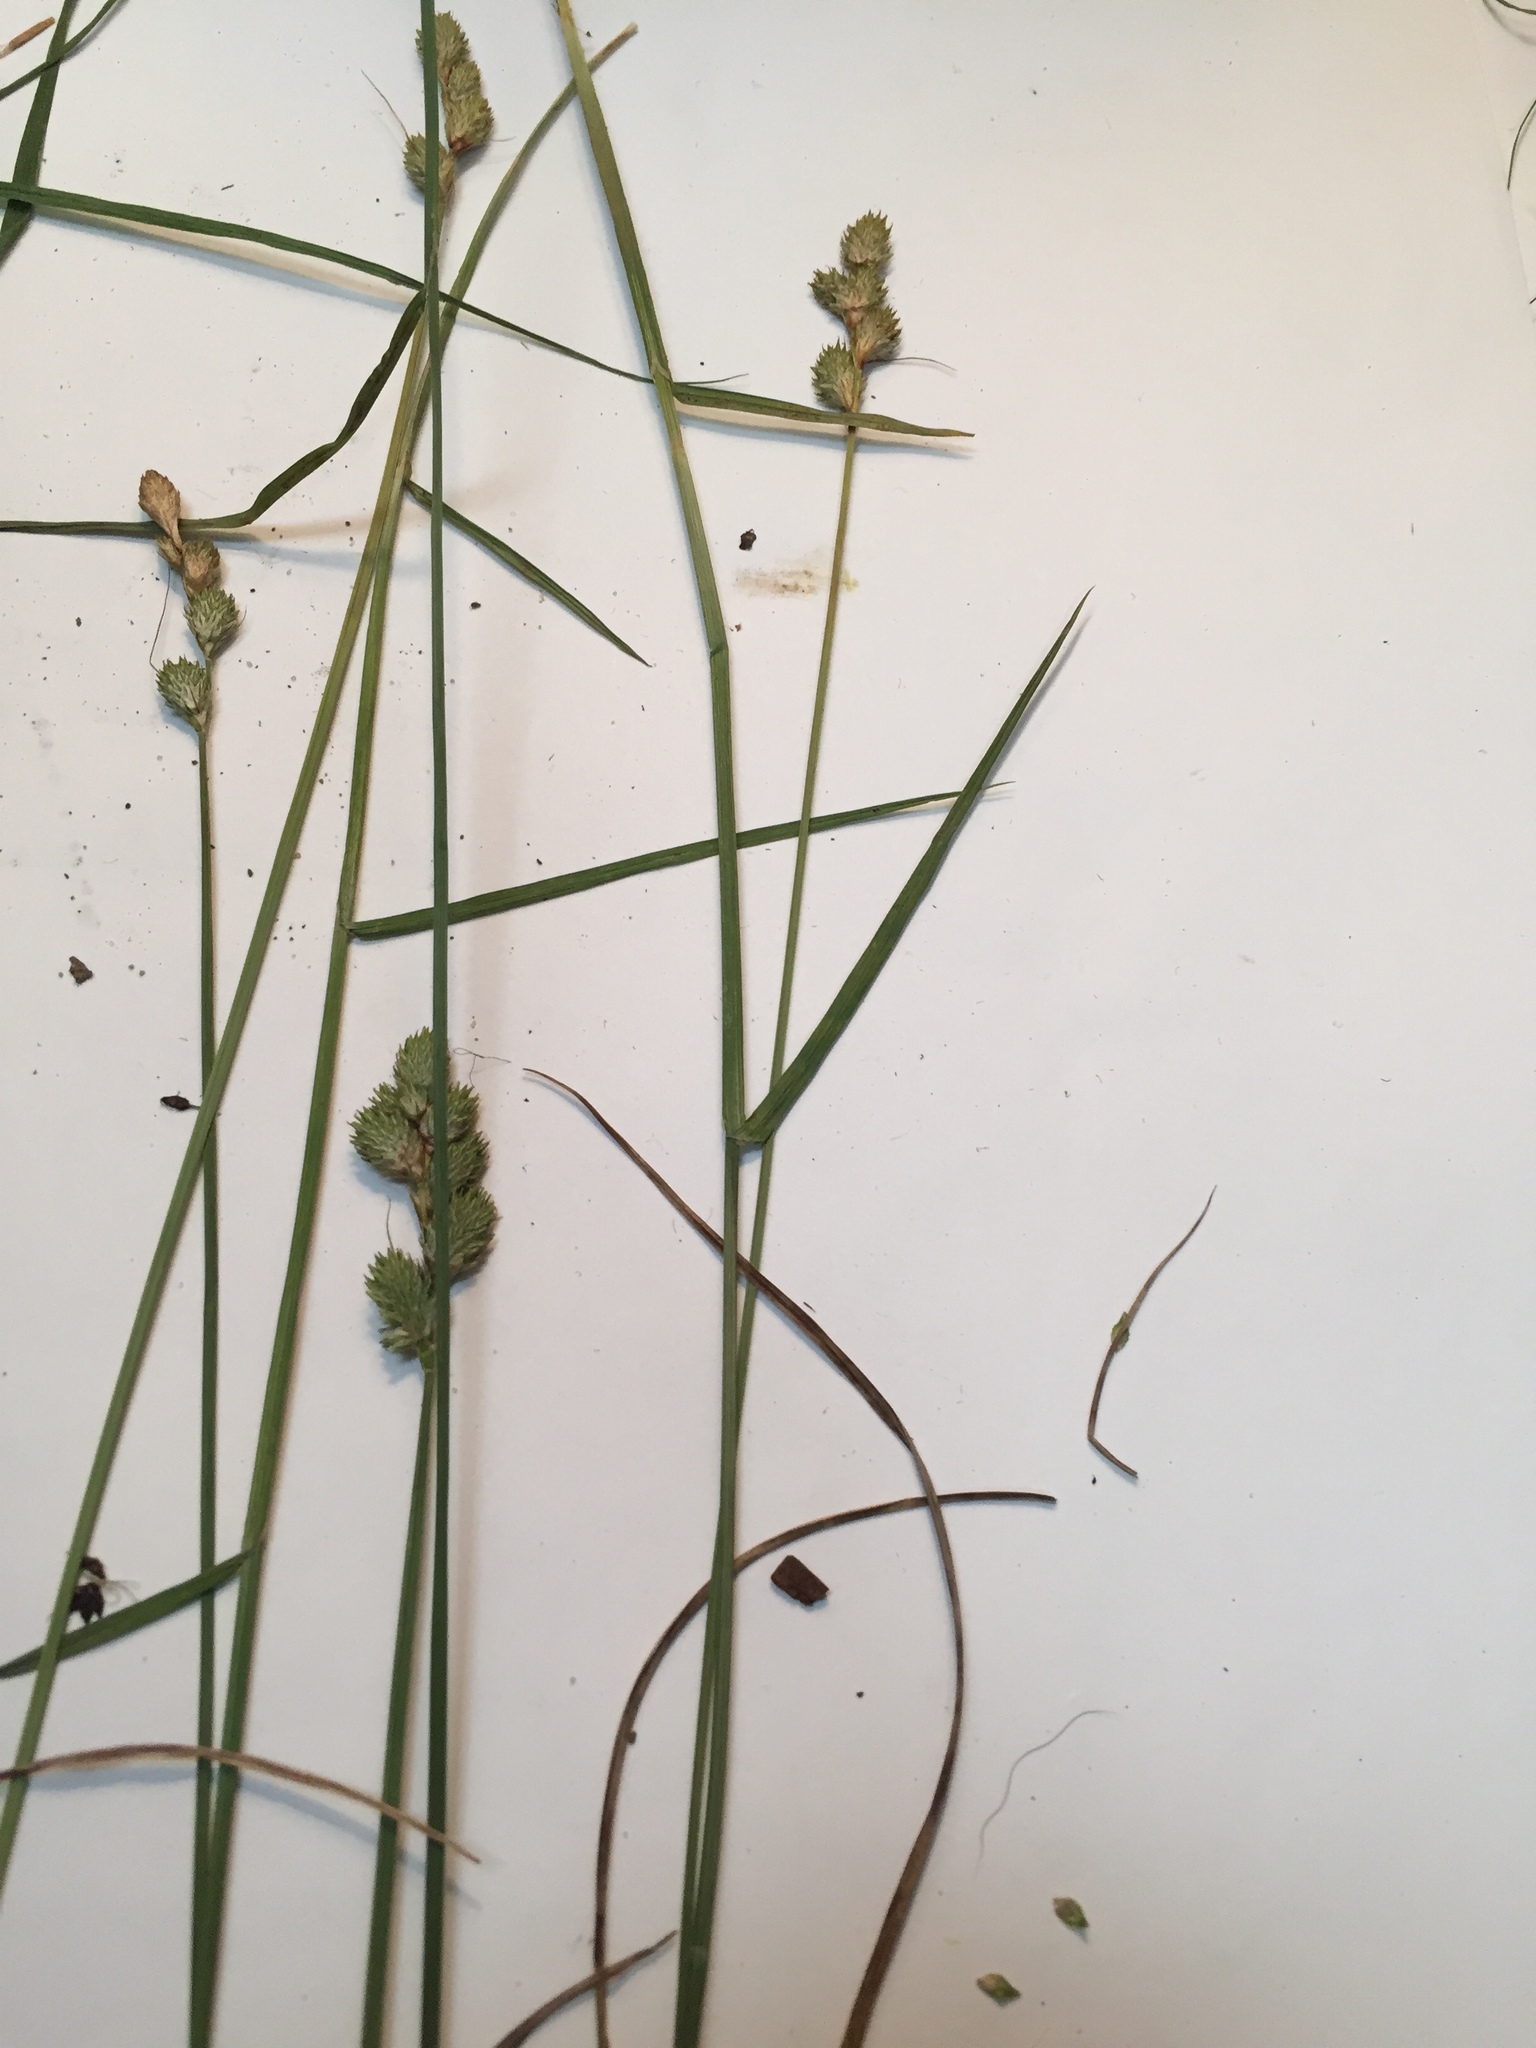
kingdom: Plantae
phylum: Tracheophyta
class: Liliopsida
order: Poales
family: Cyperaceae
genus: Carex
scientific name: Carex longii
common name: Long's sedge
